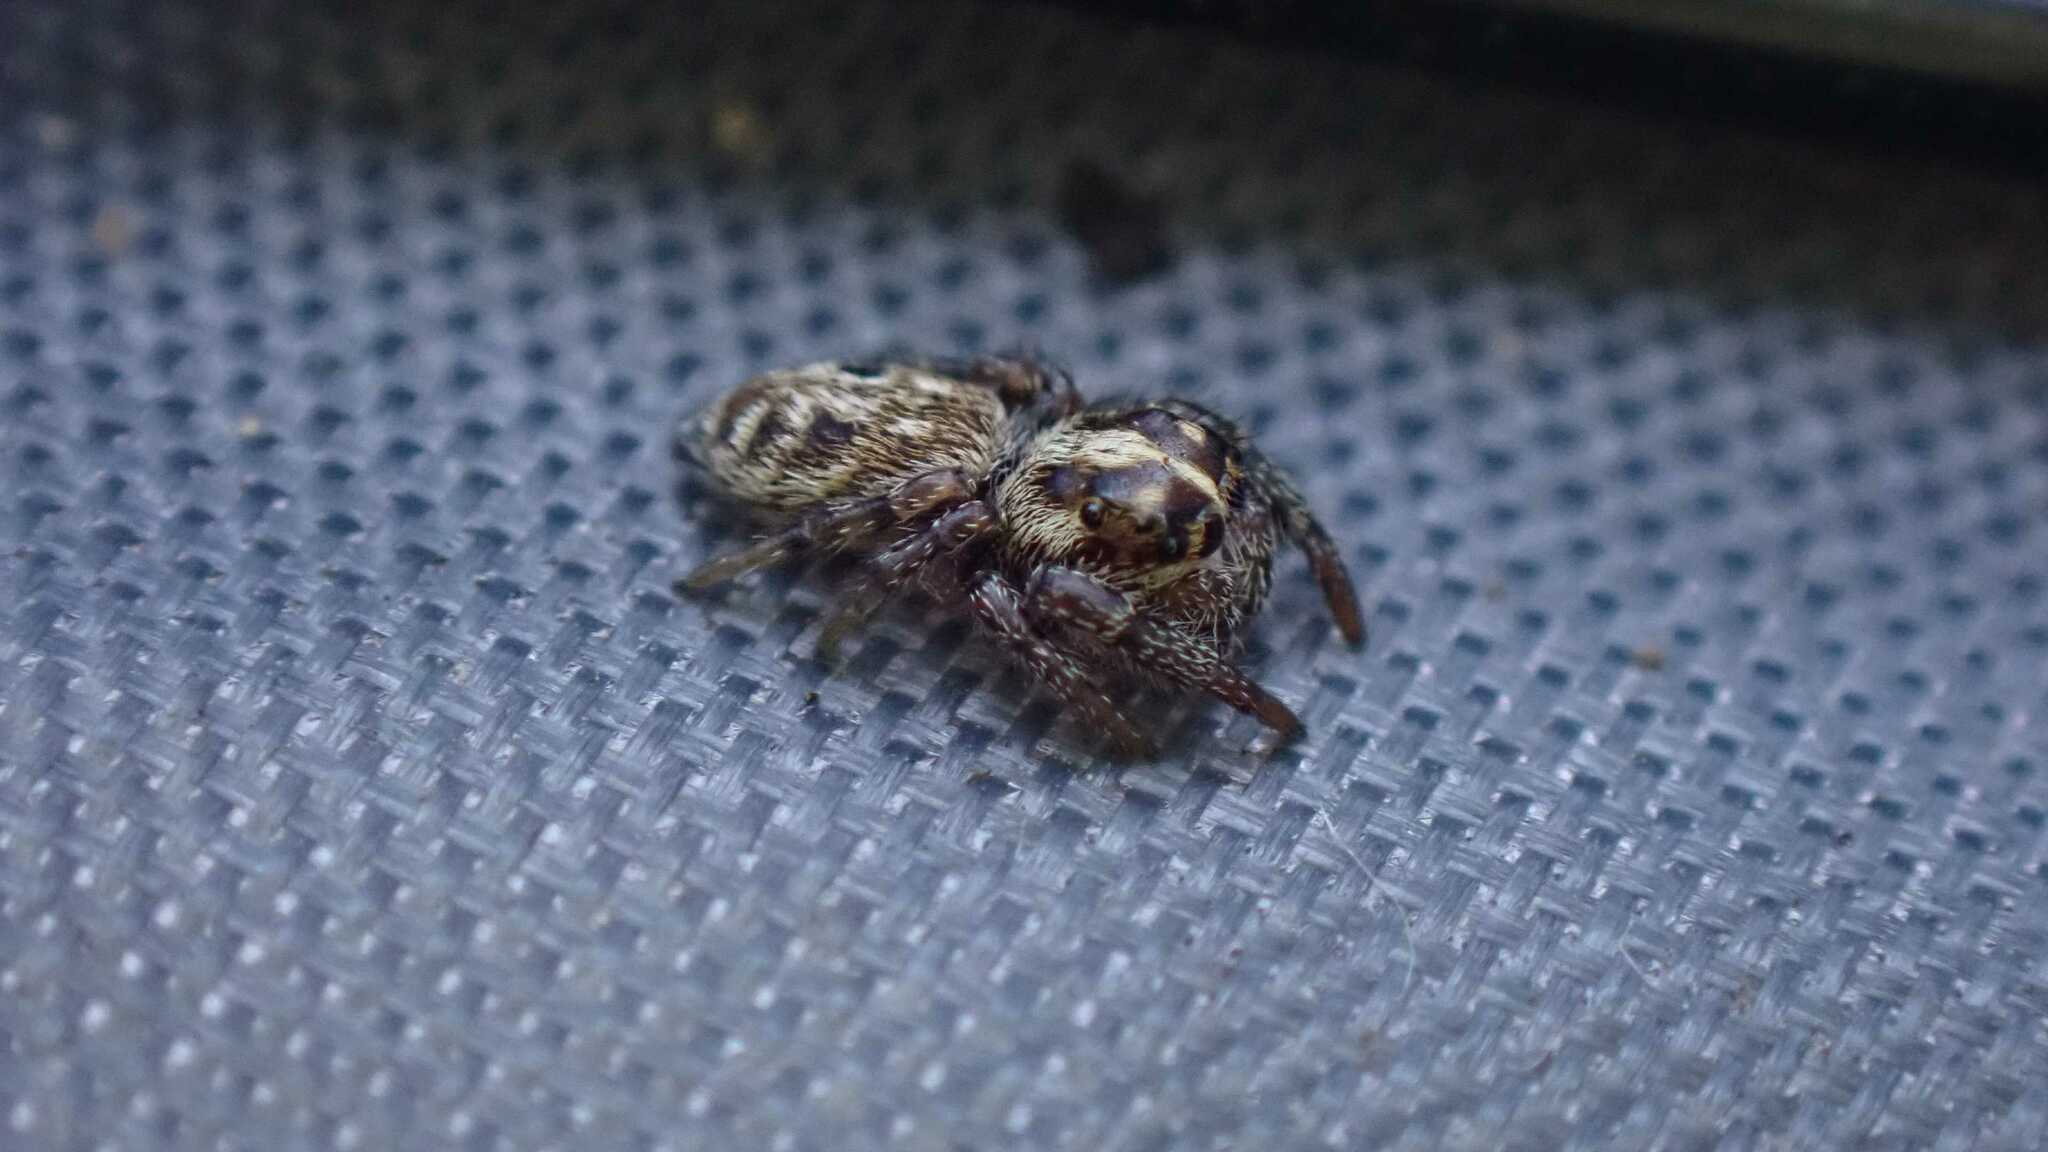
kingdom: Animalia
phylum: Arthropoda
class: Arachnida
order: Araneae
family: Salticidae
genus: Macaroeris
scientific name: Macaroeris nidicolens
